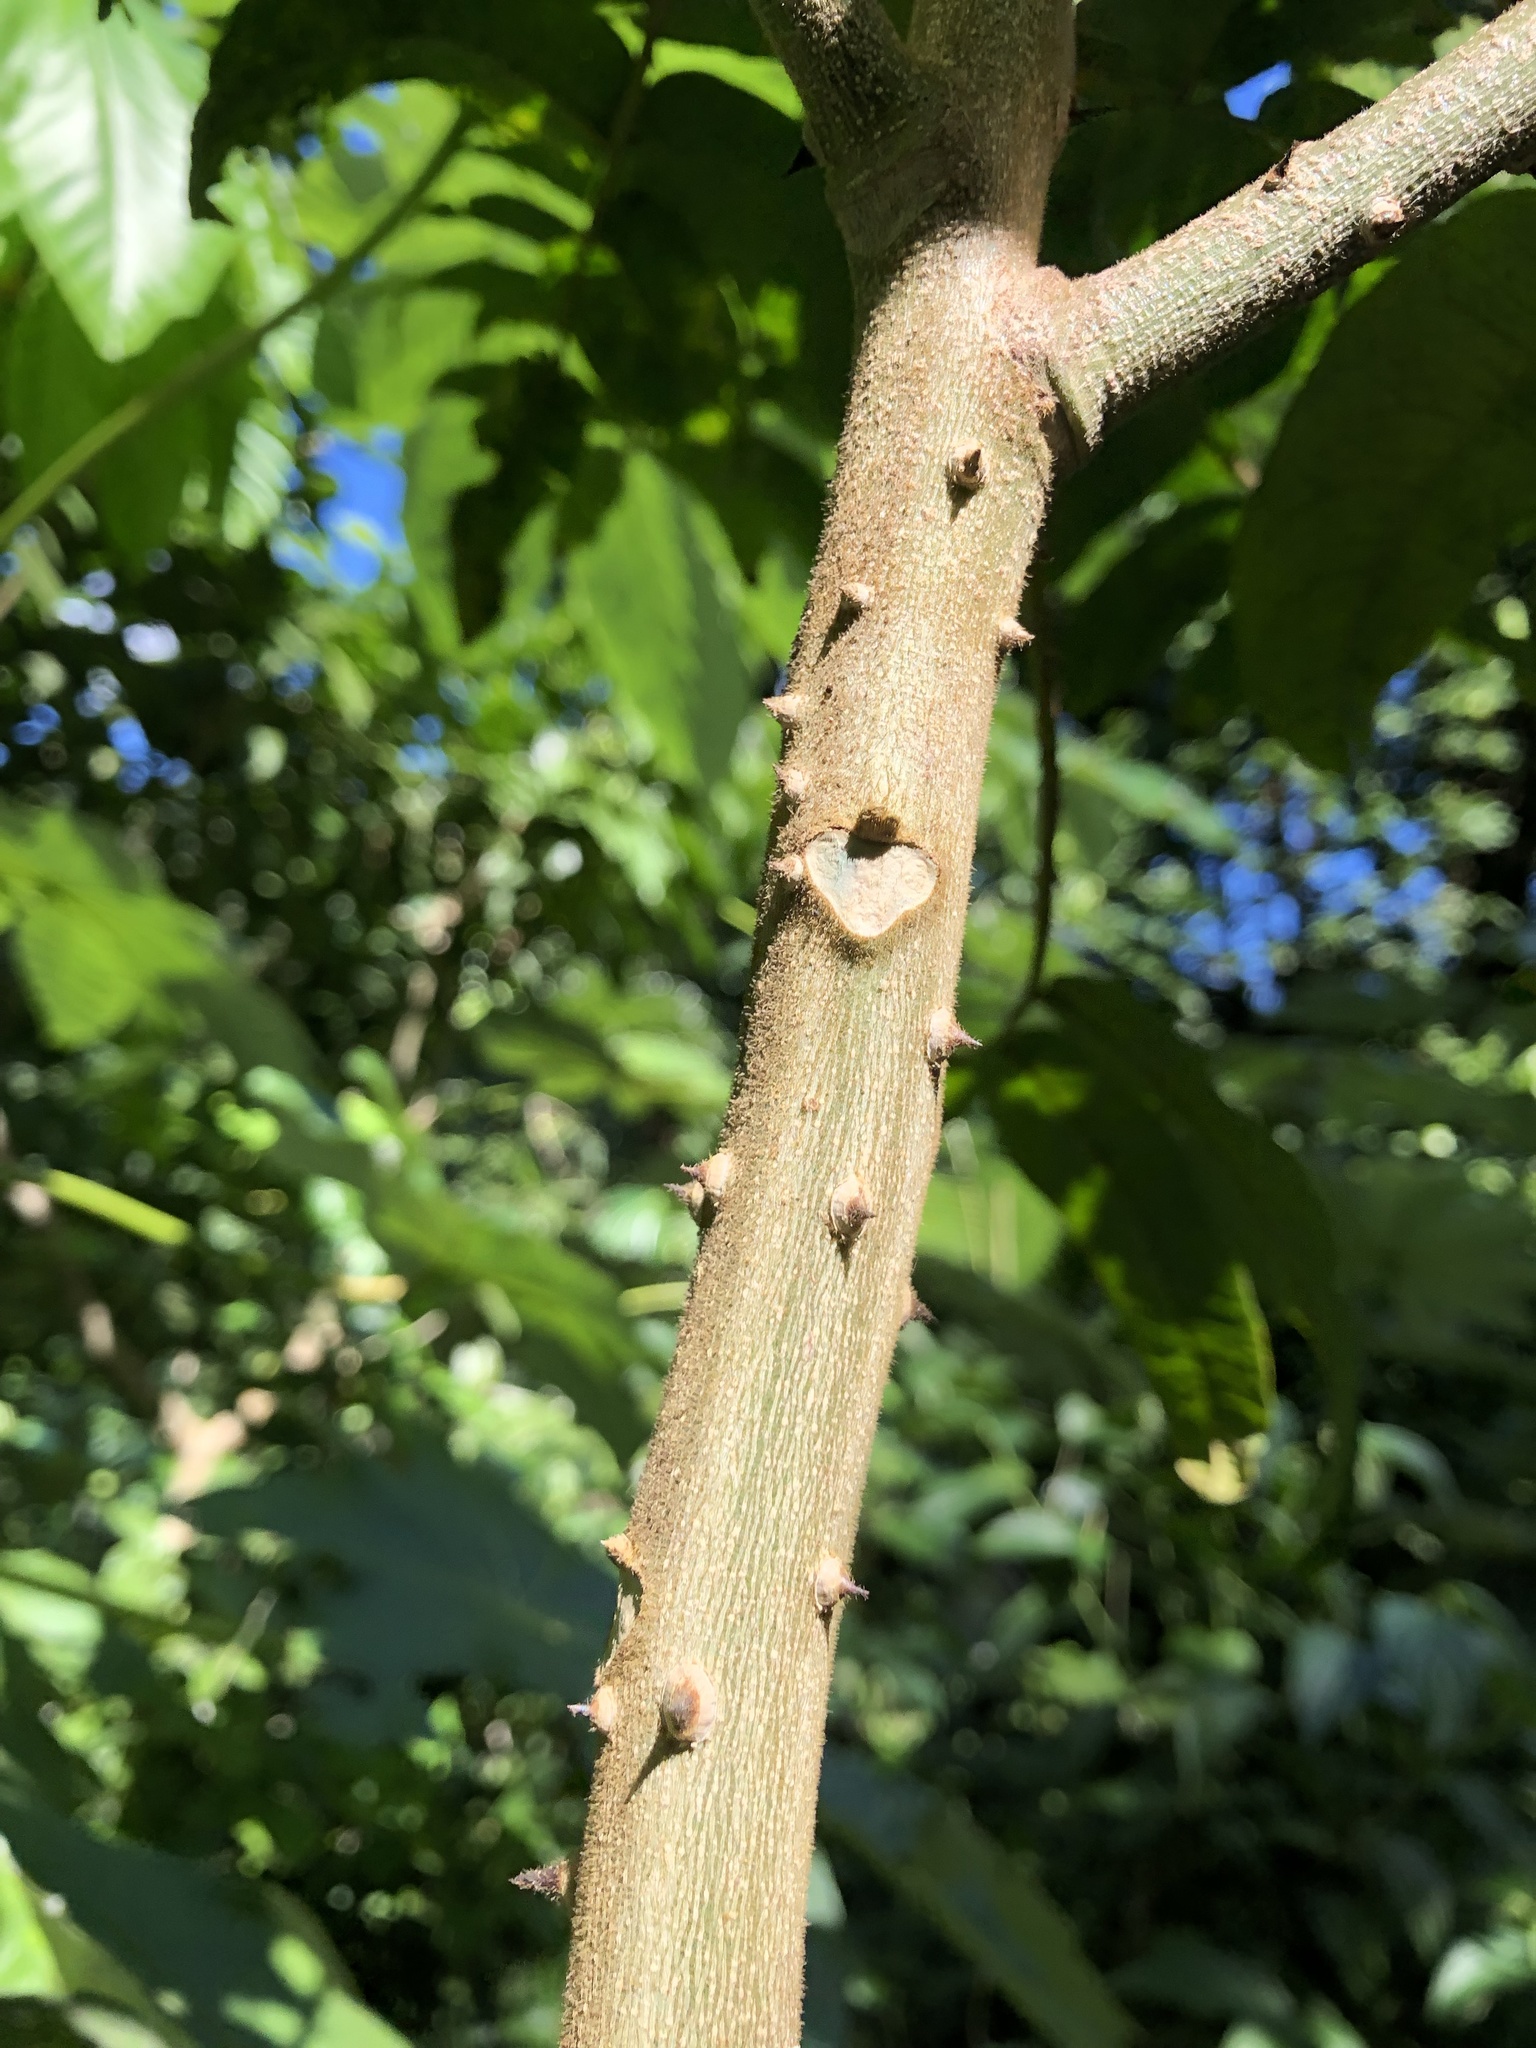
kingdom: Plantae
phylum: Tracheophyta
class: Magnoliopsida
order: Sapindales
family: Rutaceae
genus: Zanthoxylum
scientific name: Zanthoxylum martinicense
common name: Yellow prickle
